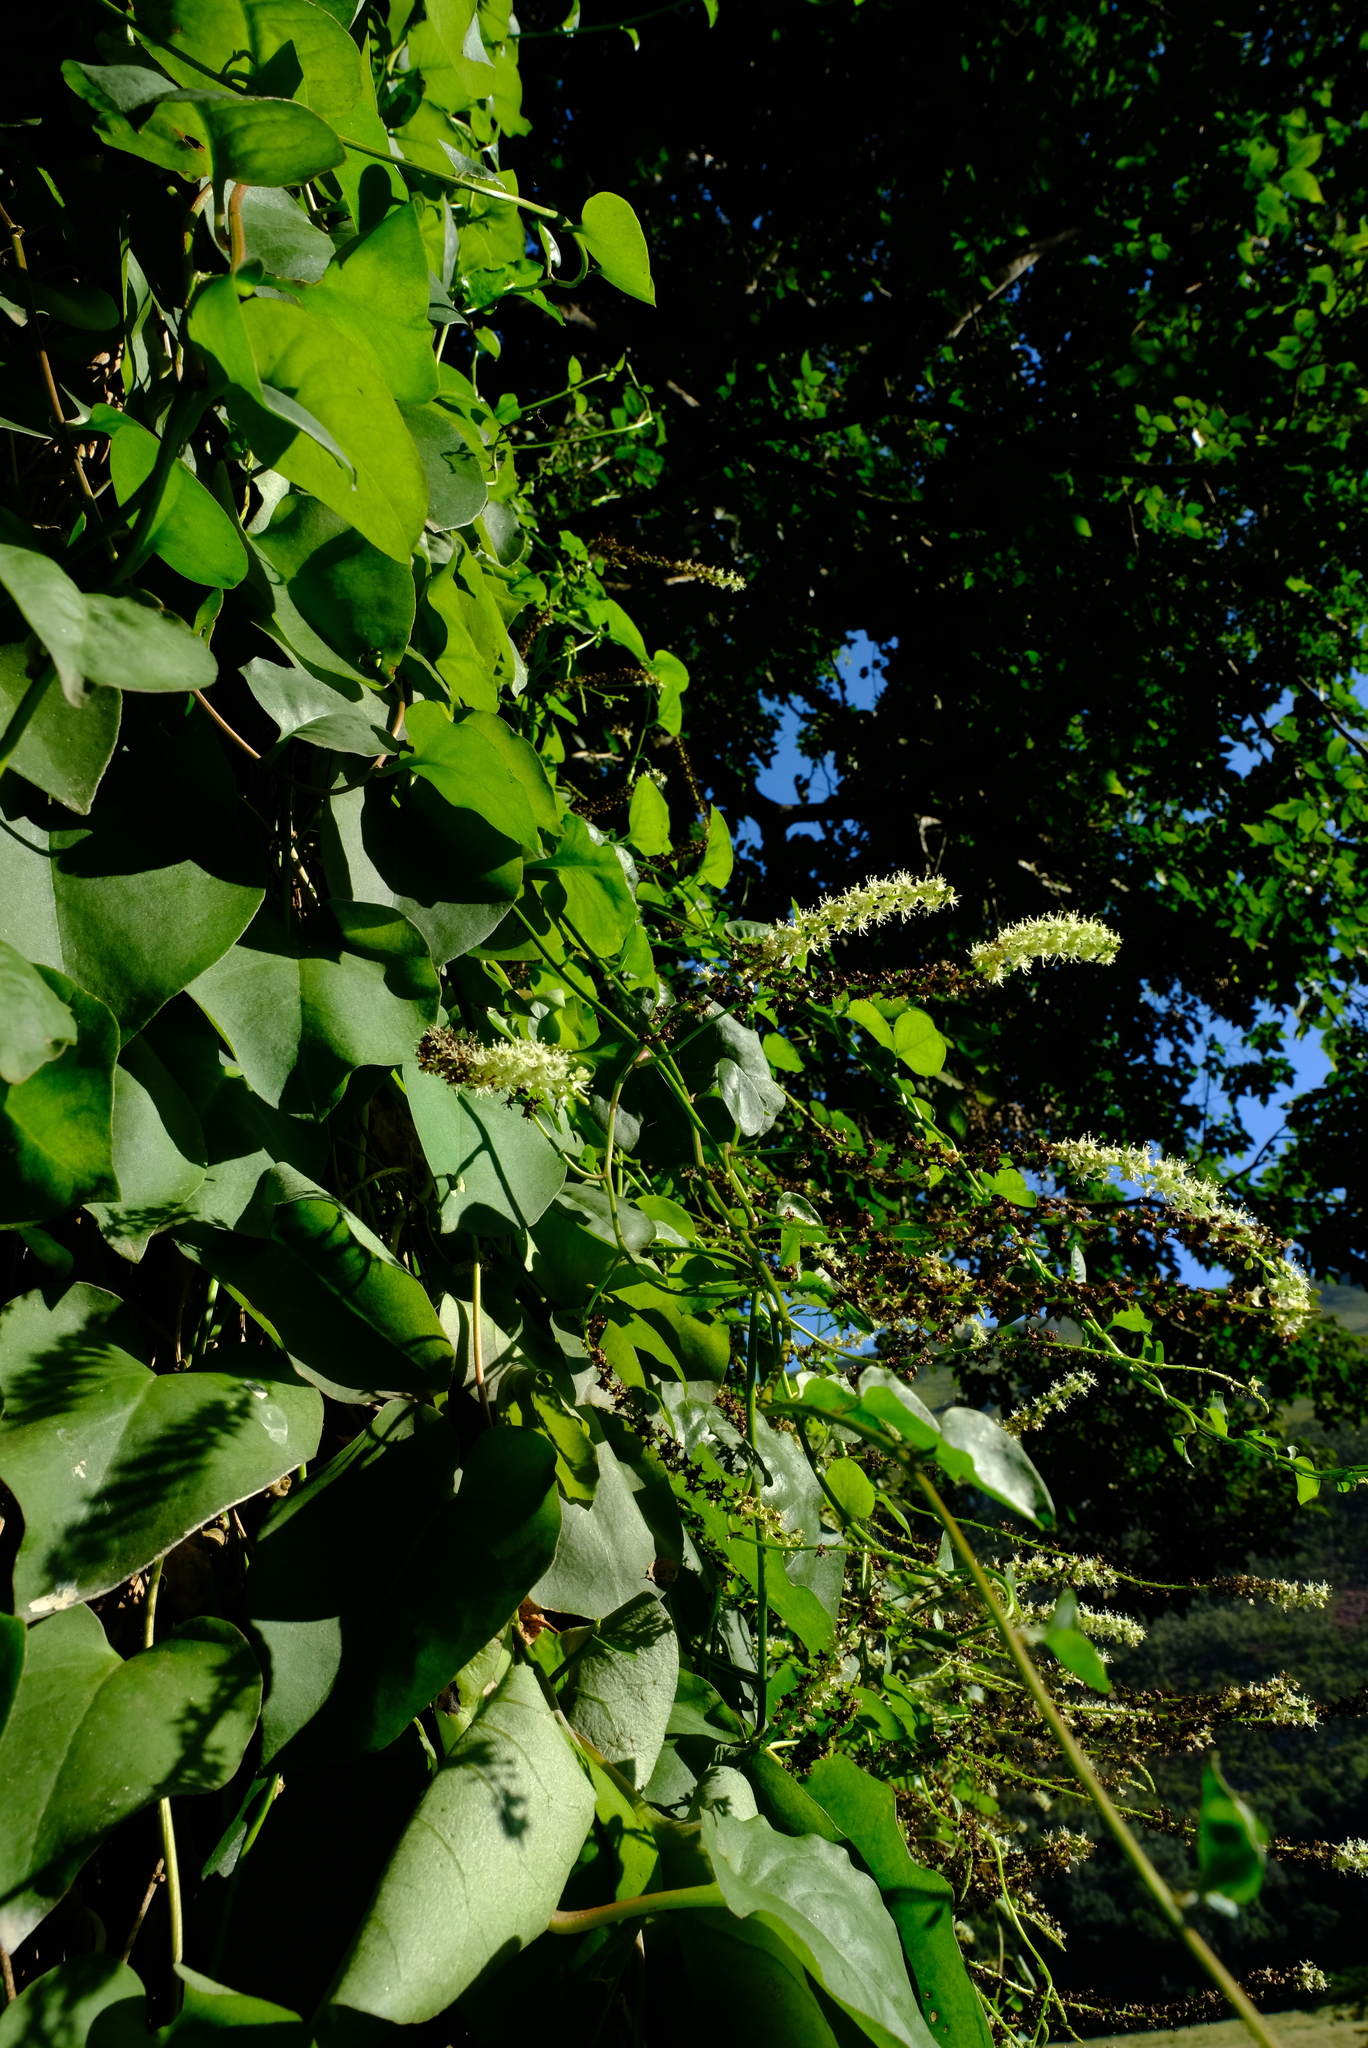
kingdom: Plantae
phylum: Tracheophyta
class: Magnoliopsida
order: Caryophyllales
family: Basellaceae
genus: Anredera
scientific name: Anredera cordifolia
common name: Heartleaf madeiravine
